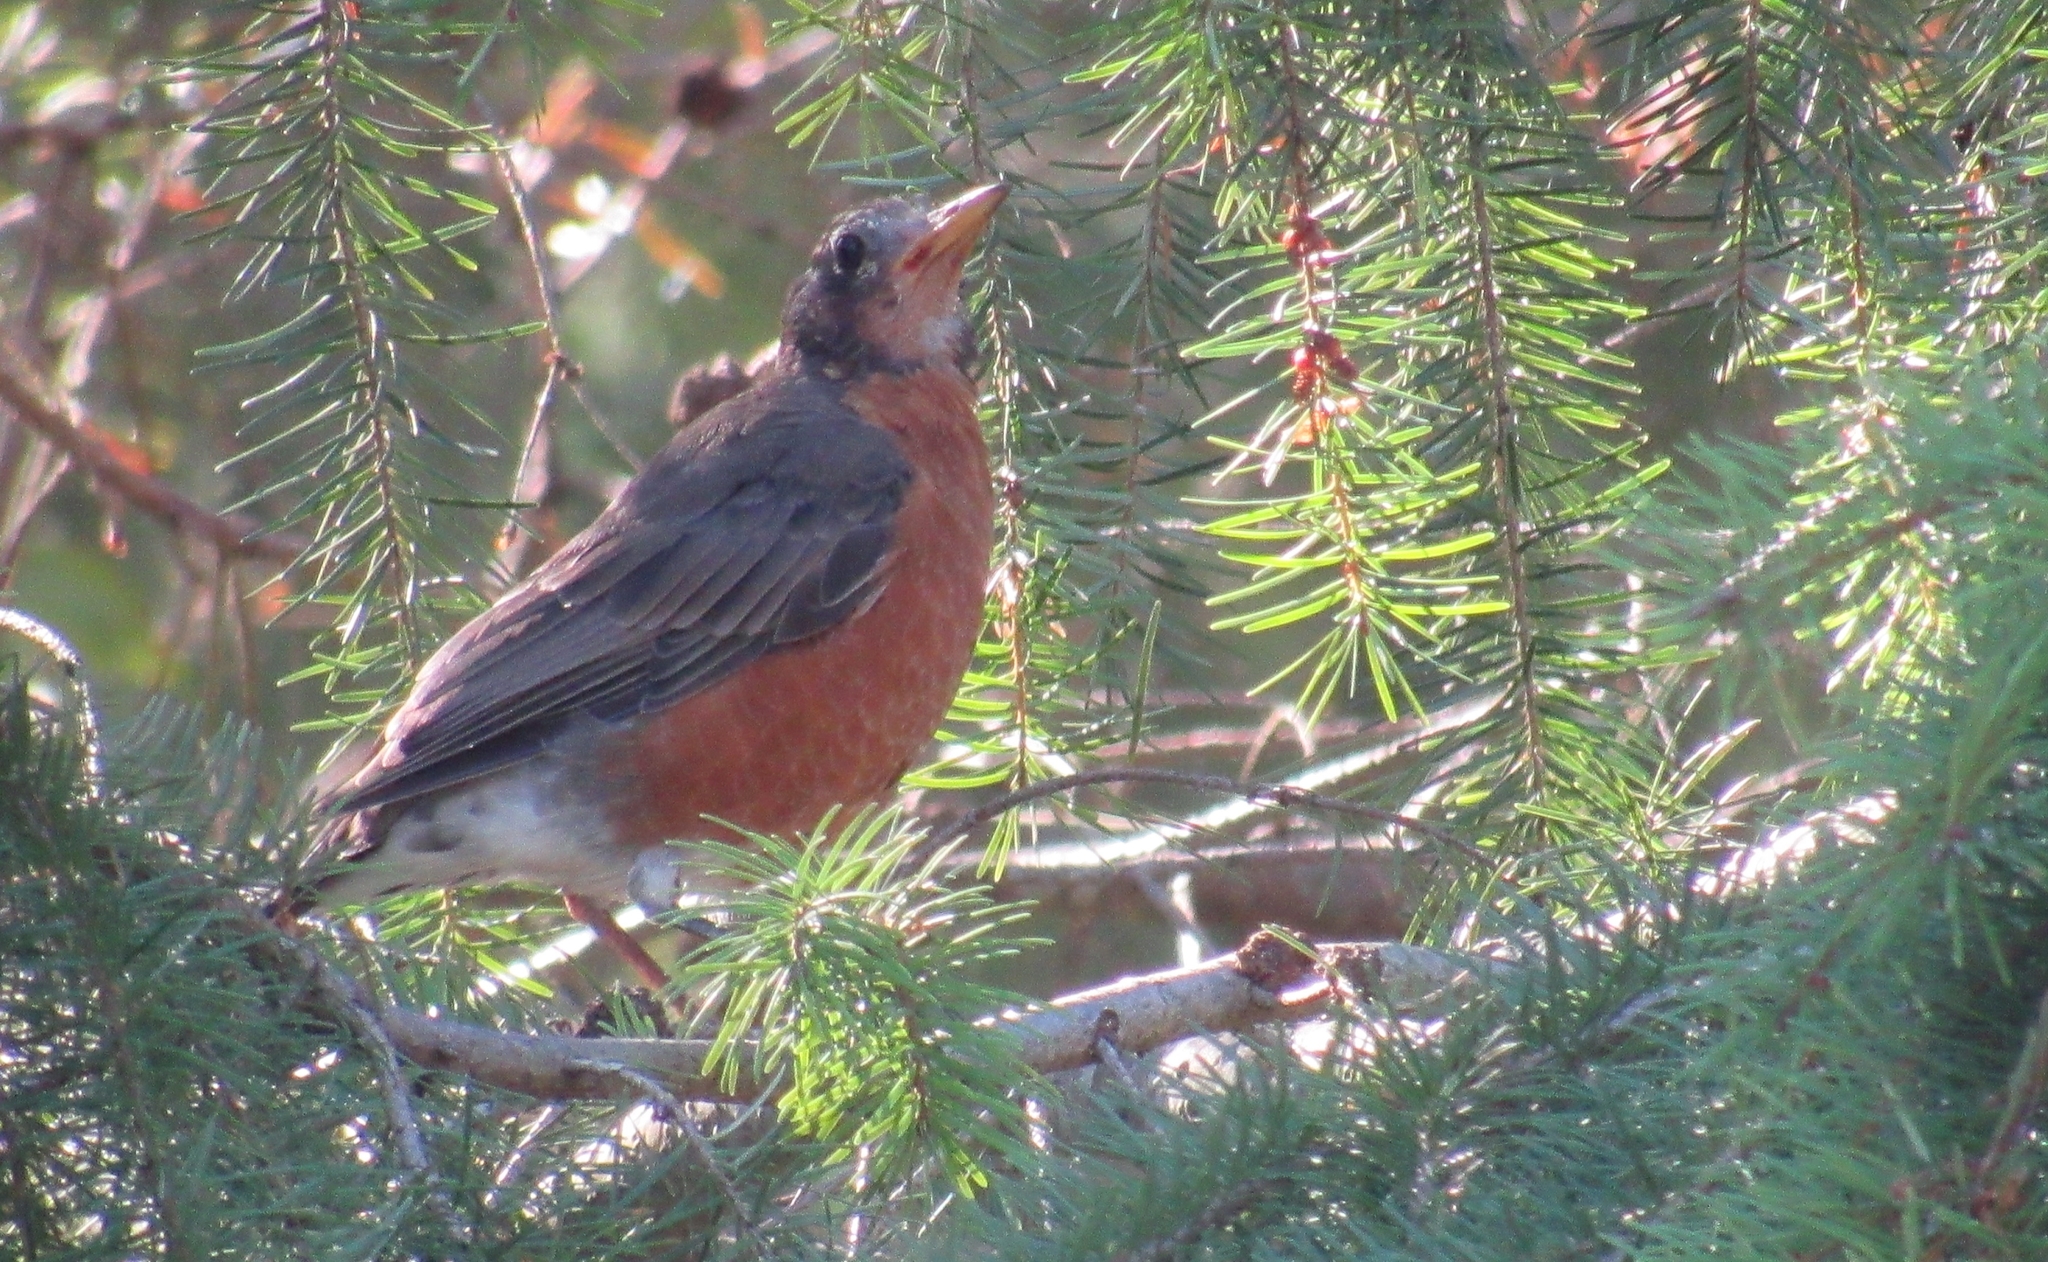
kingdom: Animalia
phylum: Chordata
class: Aves
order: Passeriformes
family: Turdidae
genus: Turdus
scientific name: Turdus migratorius
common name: American robin
